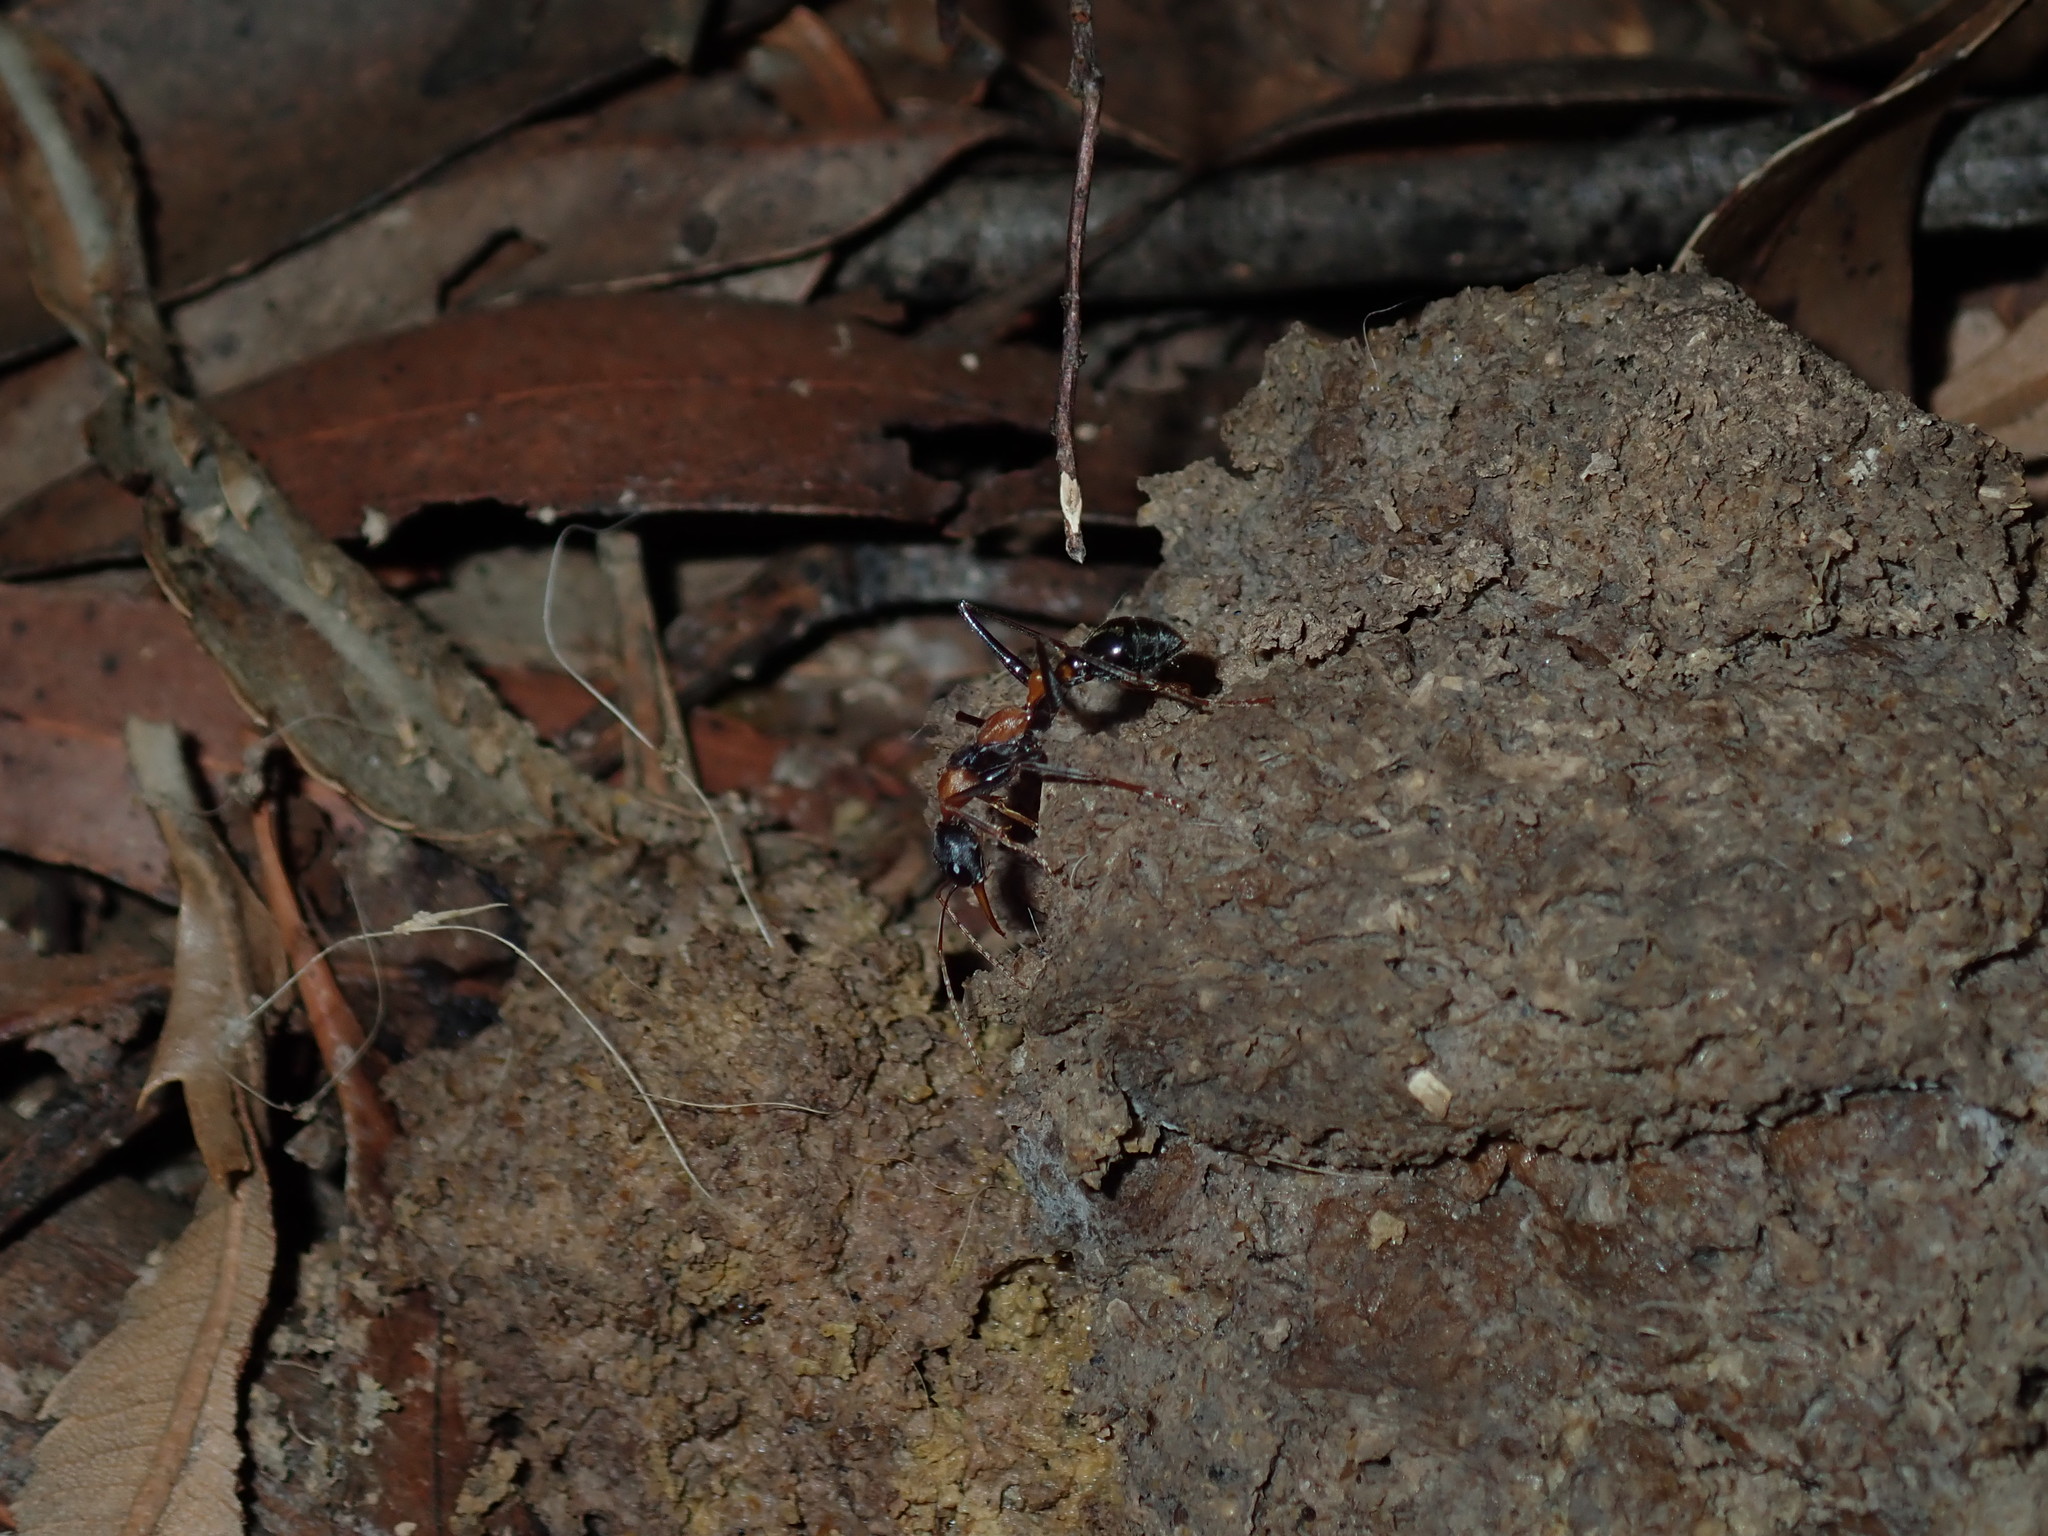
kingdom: Animalia
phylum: Arthropoda
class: Insecta
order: Hymenoptera
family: Formicidae
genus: Myrmecia
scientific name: Myrmecia nigrocincta
